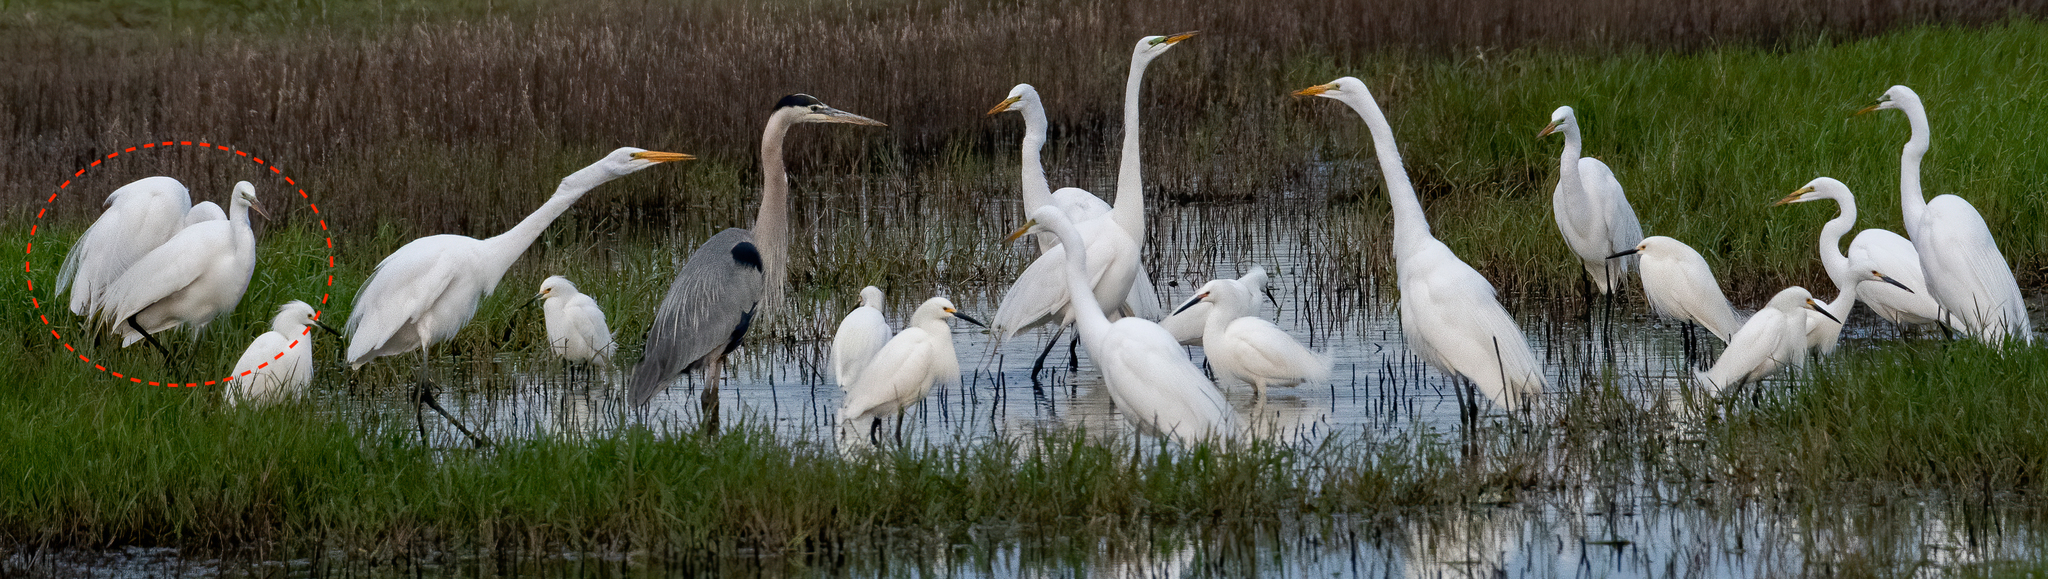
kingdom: Animalia
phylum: Chordata
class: Aves
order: Pelecaniformes
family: Ardeidae
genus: Ardea
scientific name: Ardea alba
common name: Great egret
